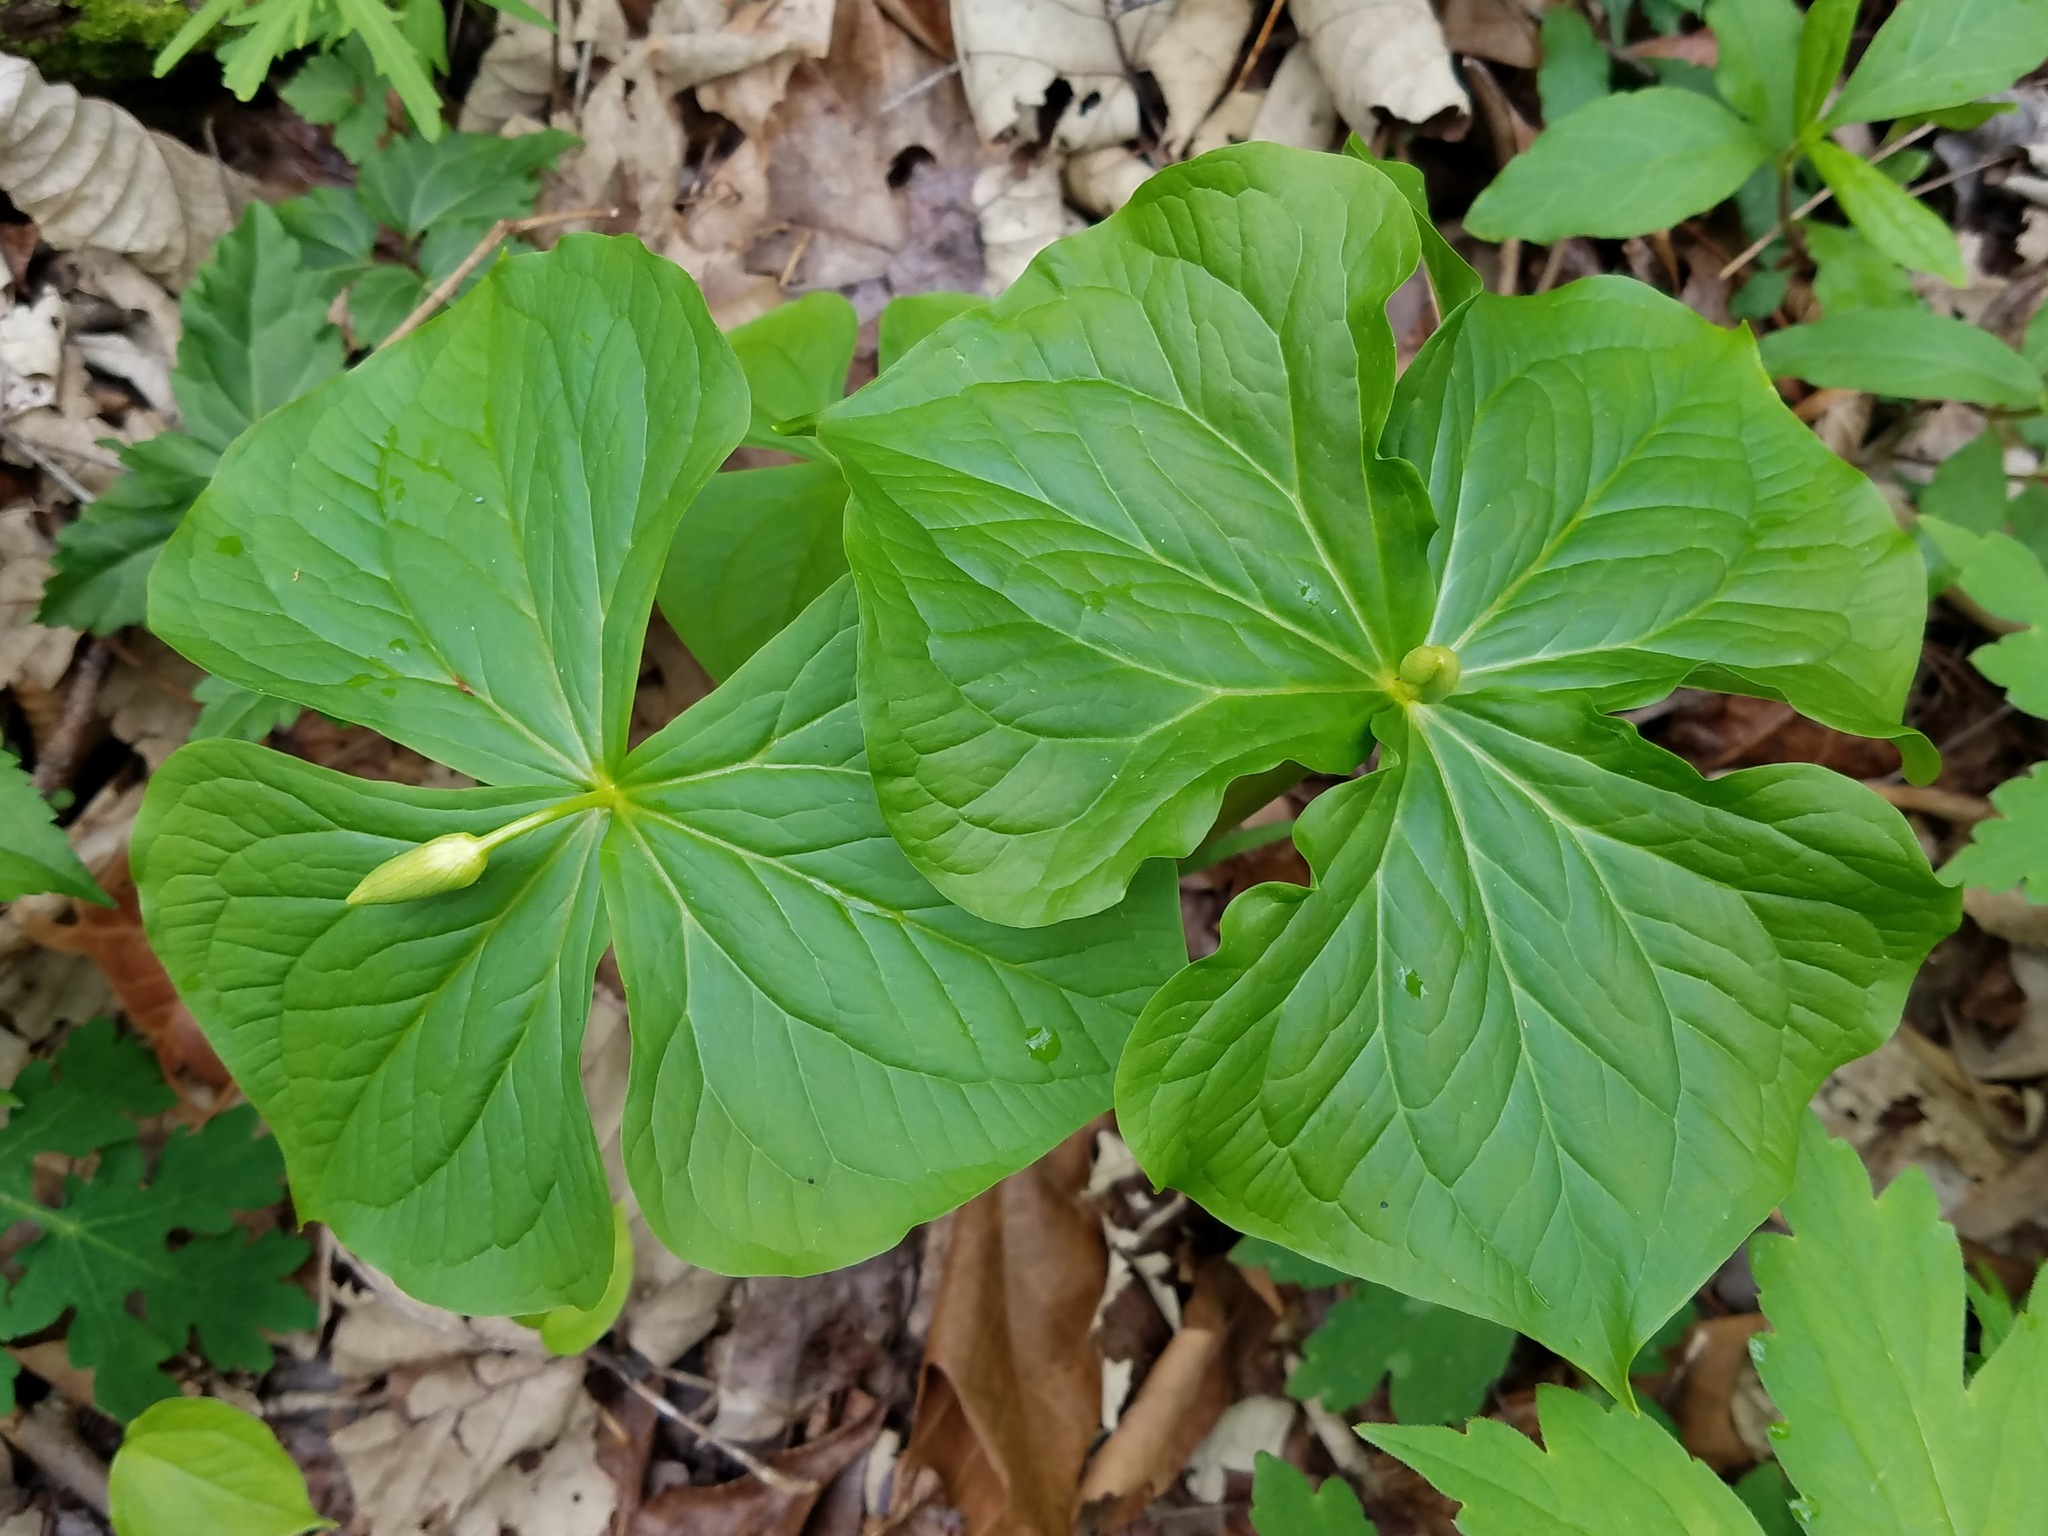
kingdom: Plantae
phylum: Tracheophyta
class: Liliopsida
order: Liliales
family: Melanthiaceae
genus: Trillium
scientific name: Trillium flexipes
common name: Drooping trillium
